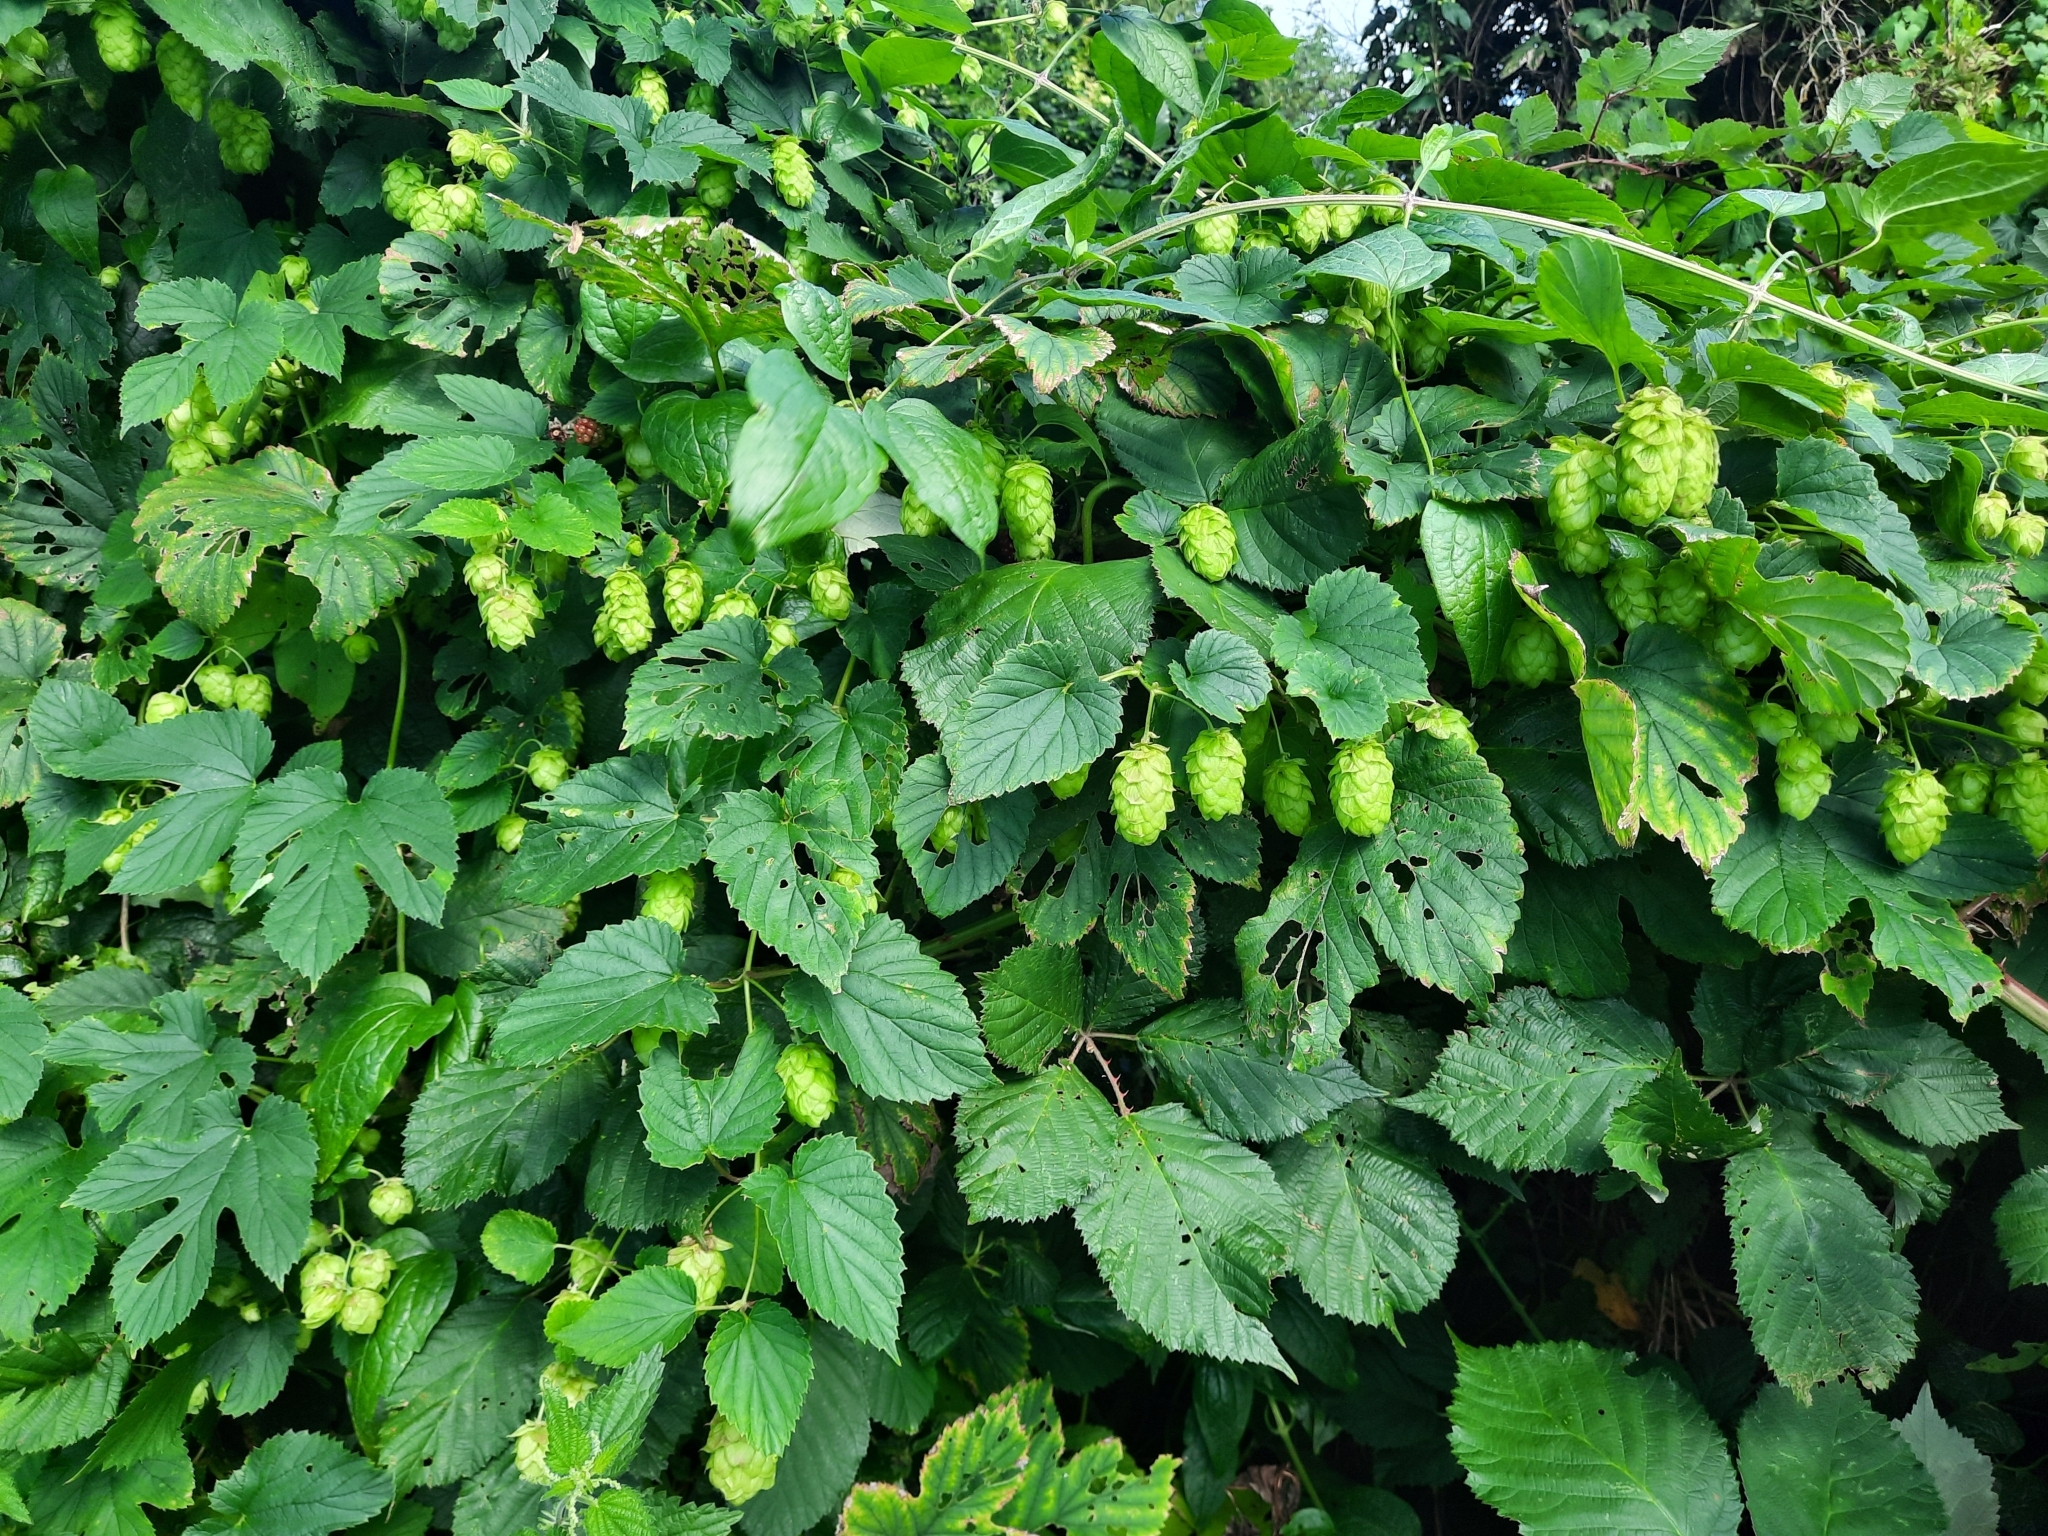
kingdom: Plantae
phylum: Tracheophyta
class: Magnoliopsida
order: Rosales
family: Cannabaceae
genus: Humulus
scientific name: Humulus lupulus
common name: Hop
